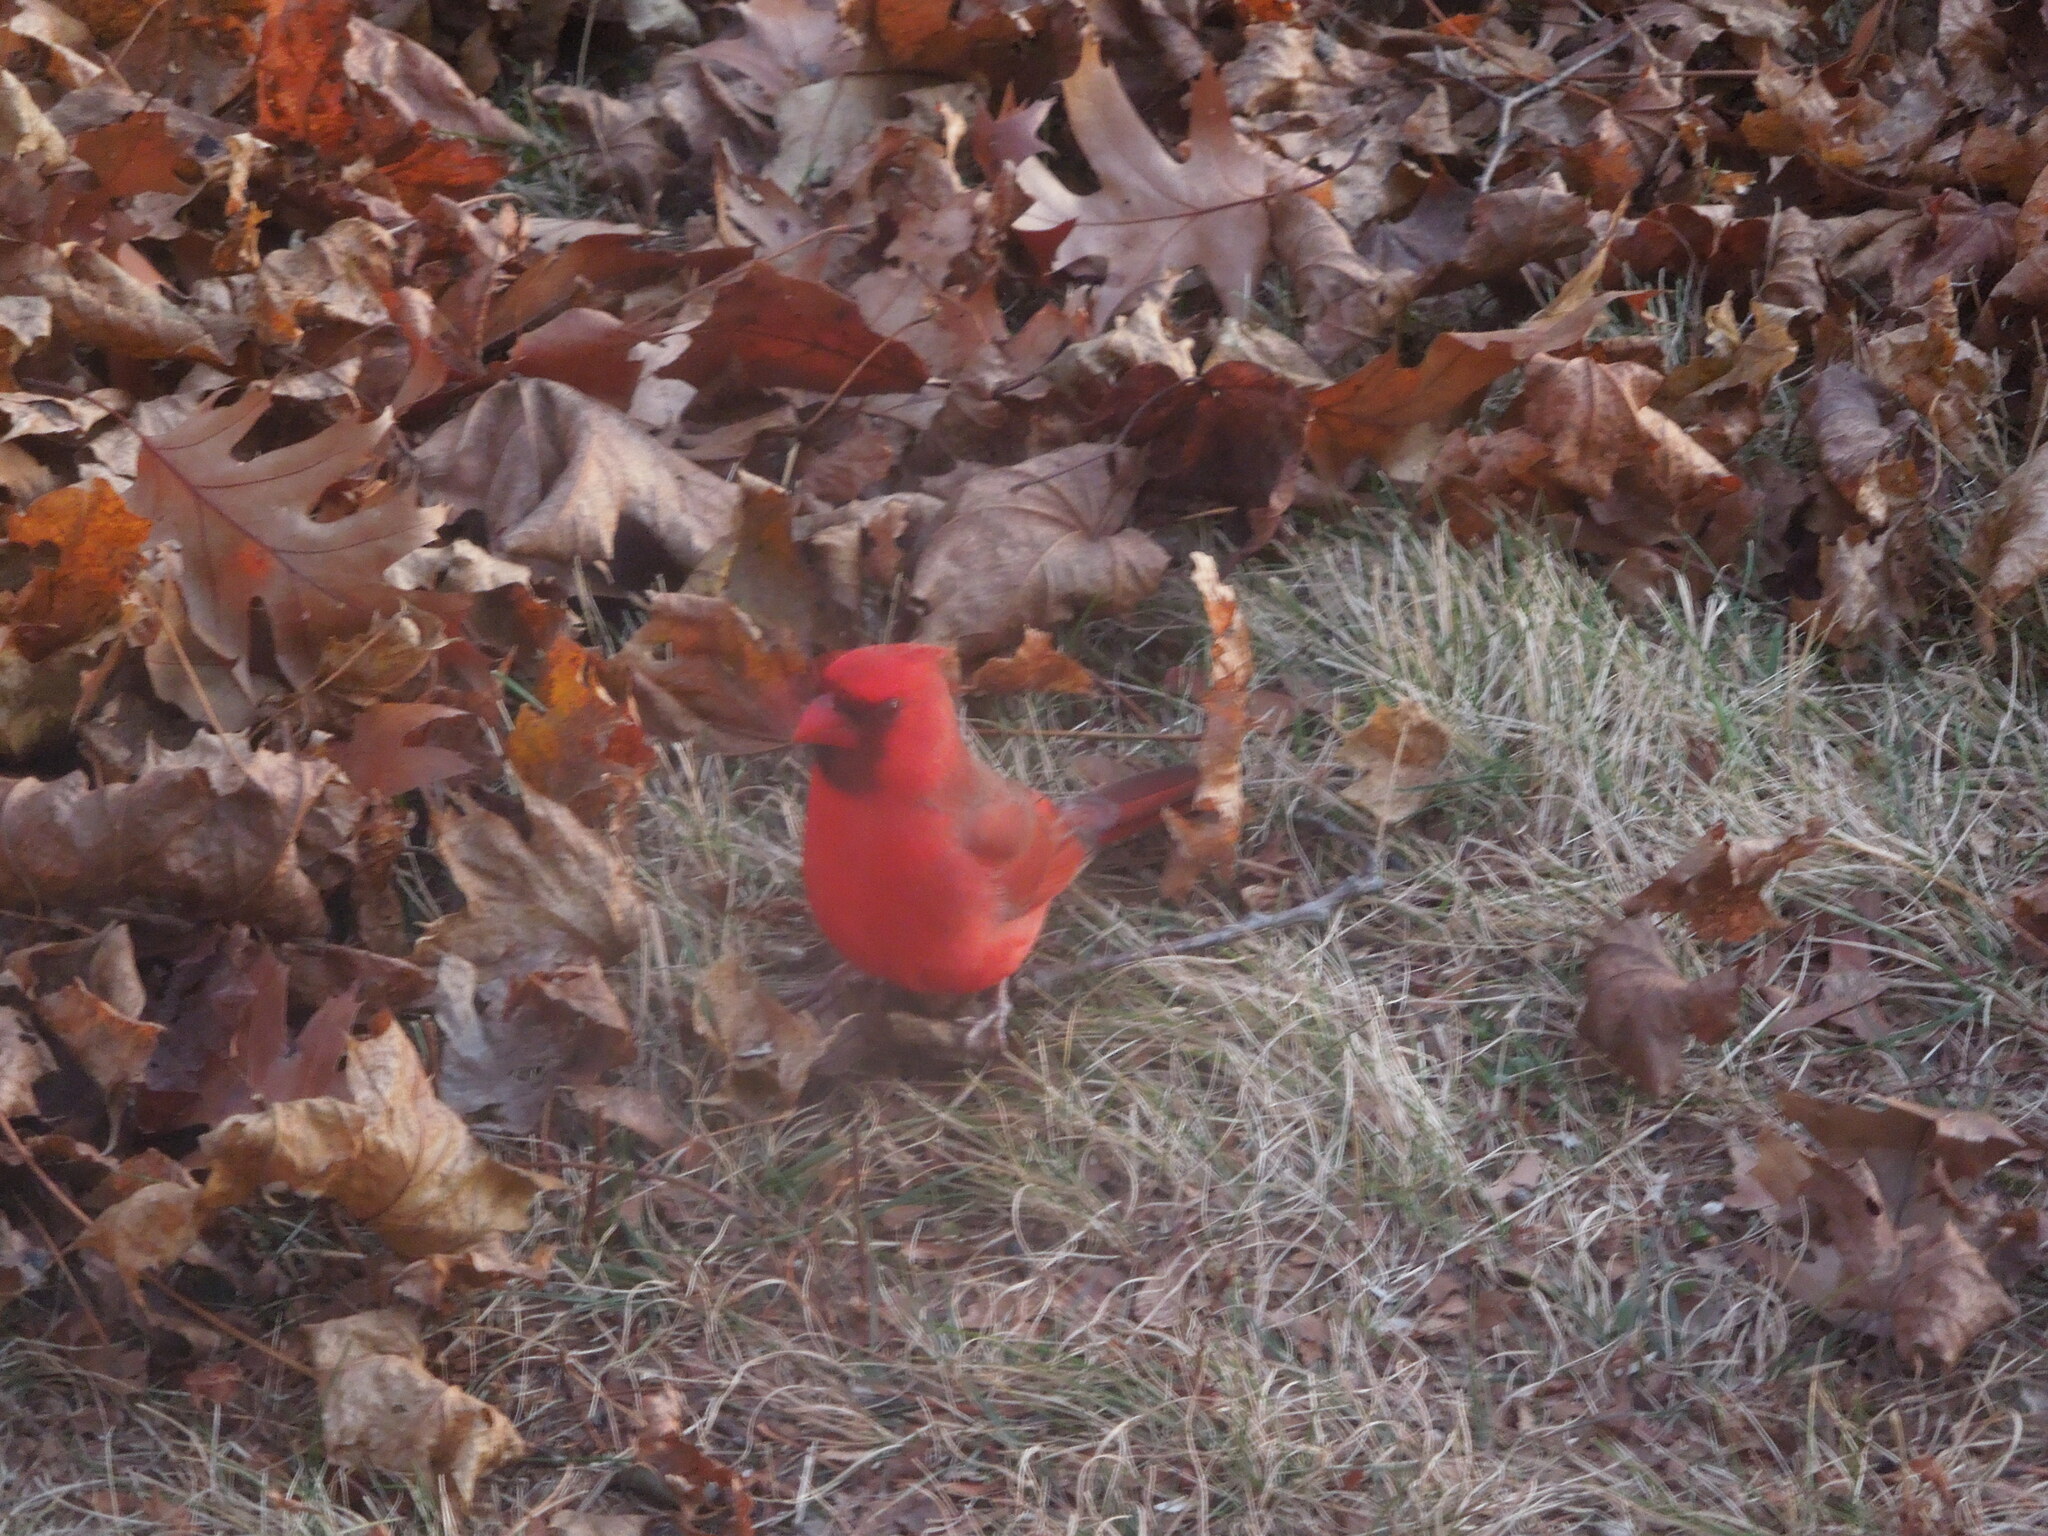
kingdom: Animalia
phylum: Chordata
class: Aves
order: Passeriformes
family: Cardinalidae
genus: Cardinalis
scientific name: Cardinalis cardinalis
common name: Northern cardinal
